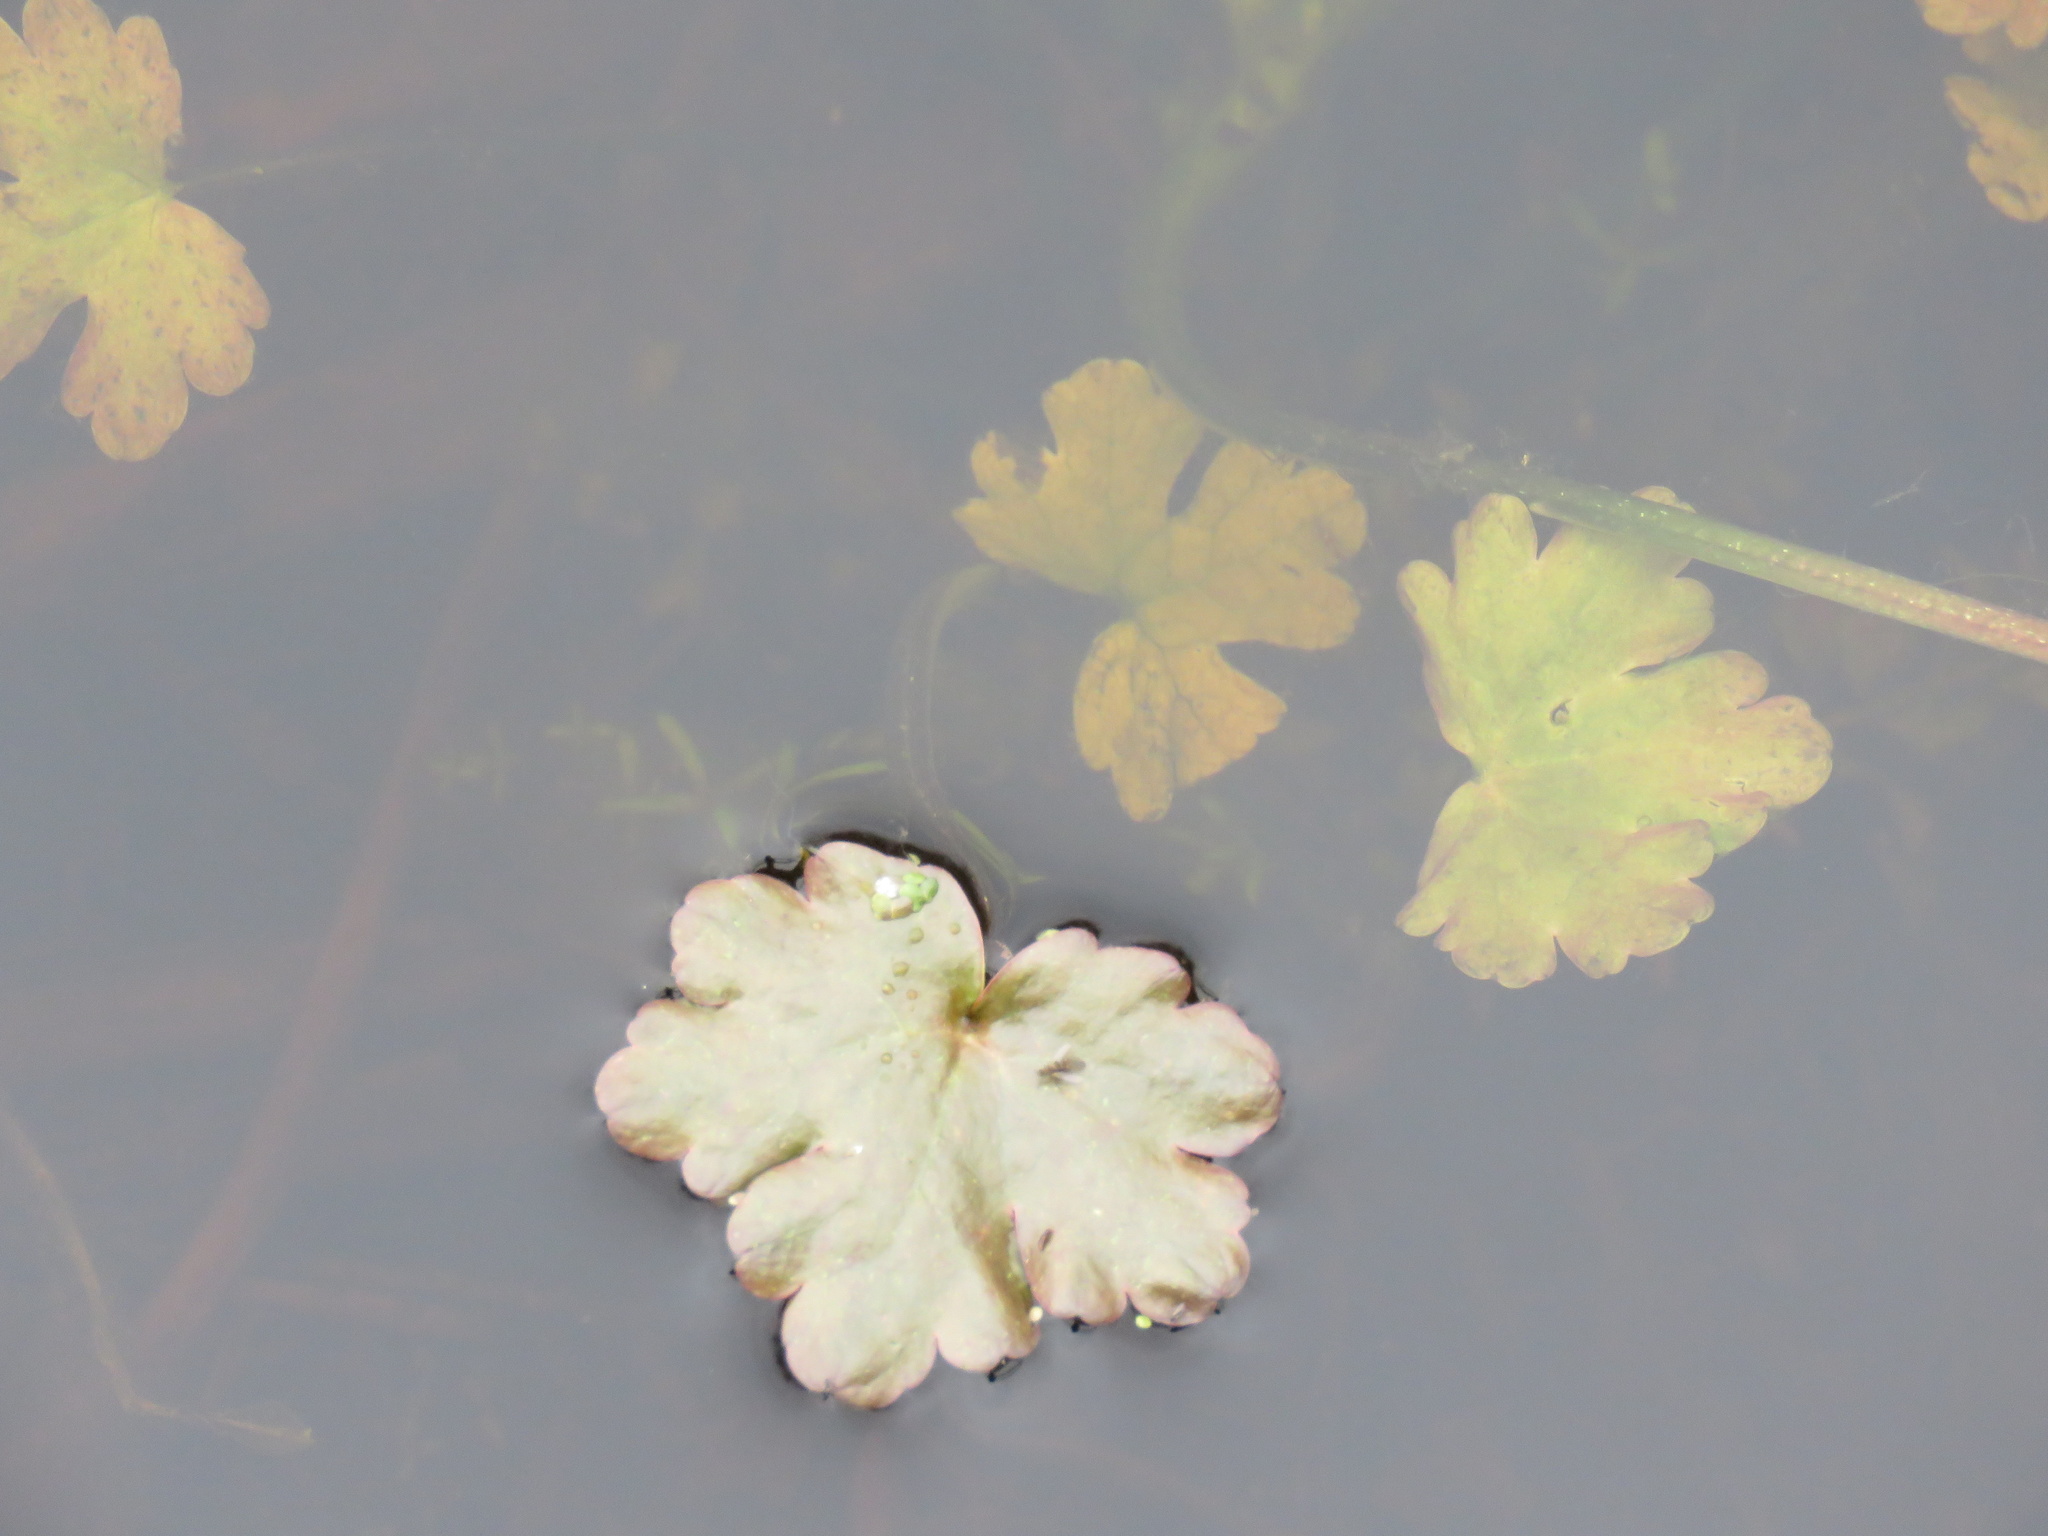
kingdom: Plantae
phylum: Tracheophyta
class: Magnoliopsida
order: Ranunculales
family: Ranunculaceae
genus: Ranunculus
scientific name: Ranunculus sceleratus
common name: Celery-leaved buttercup
